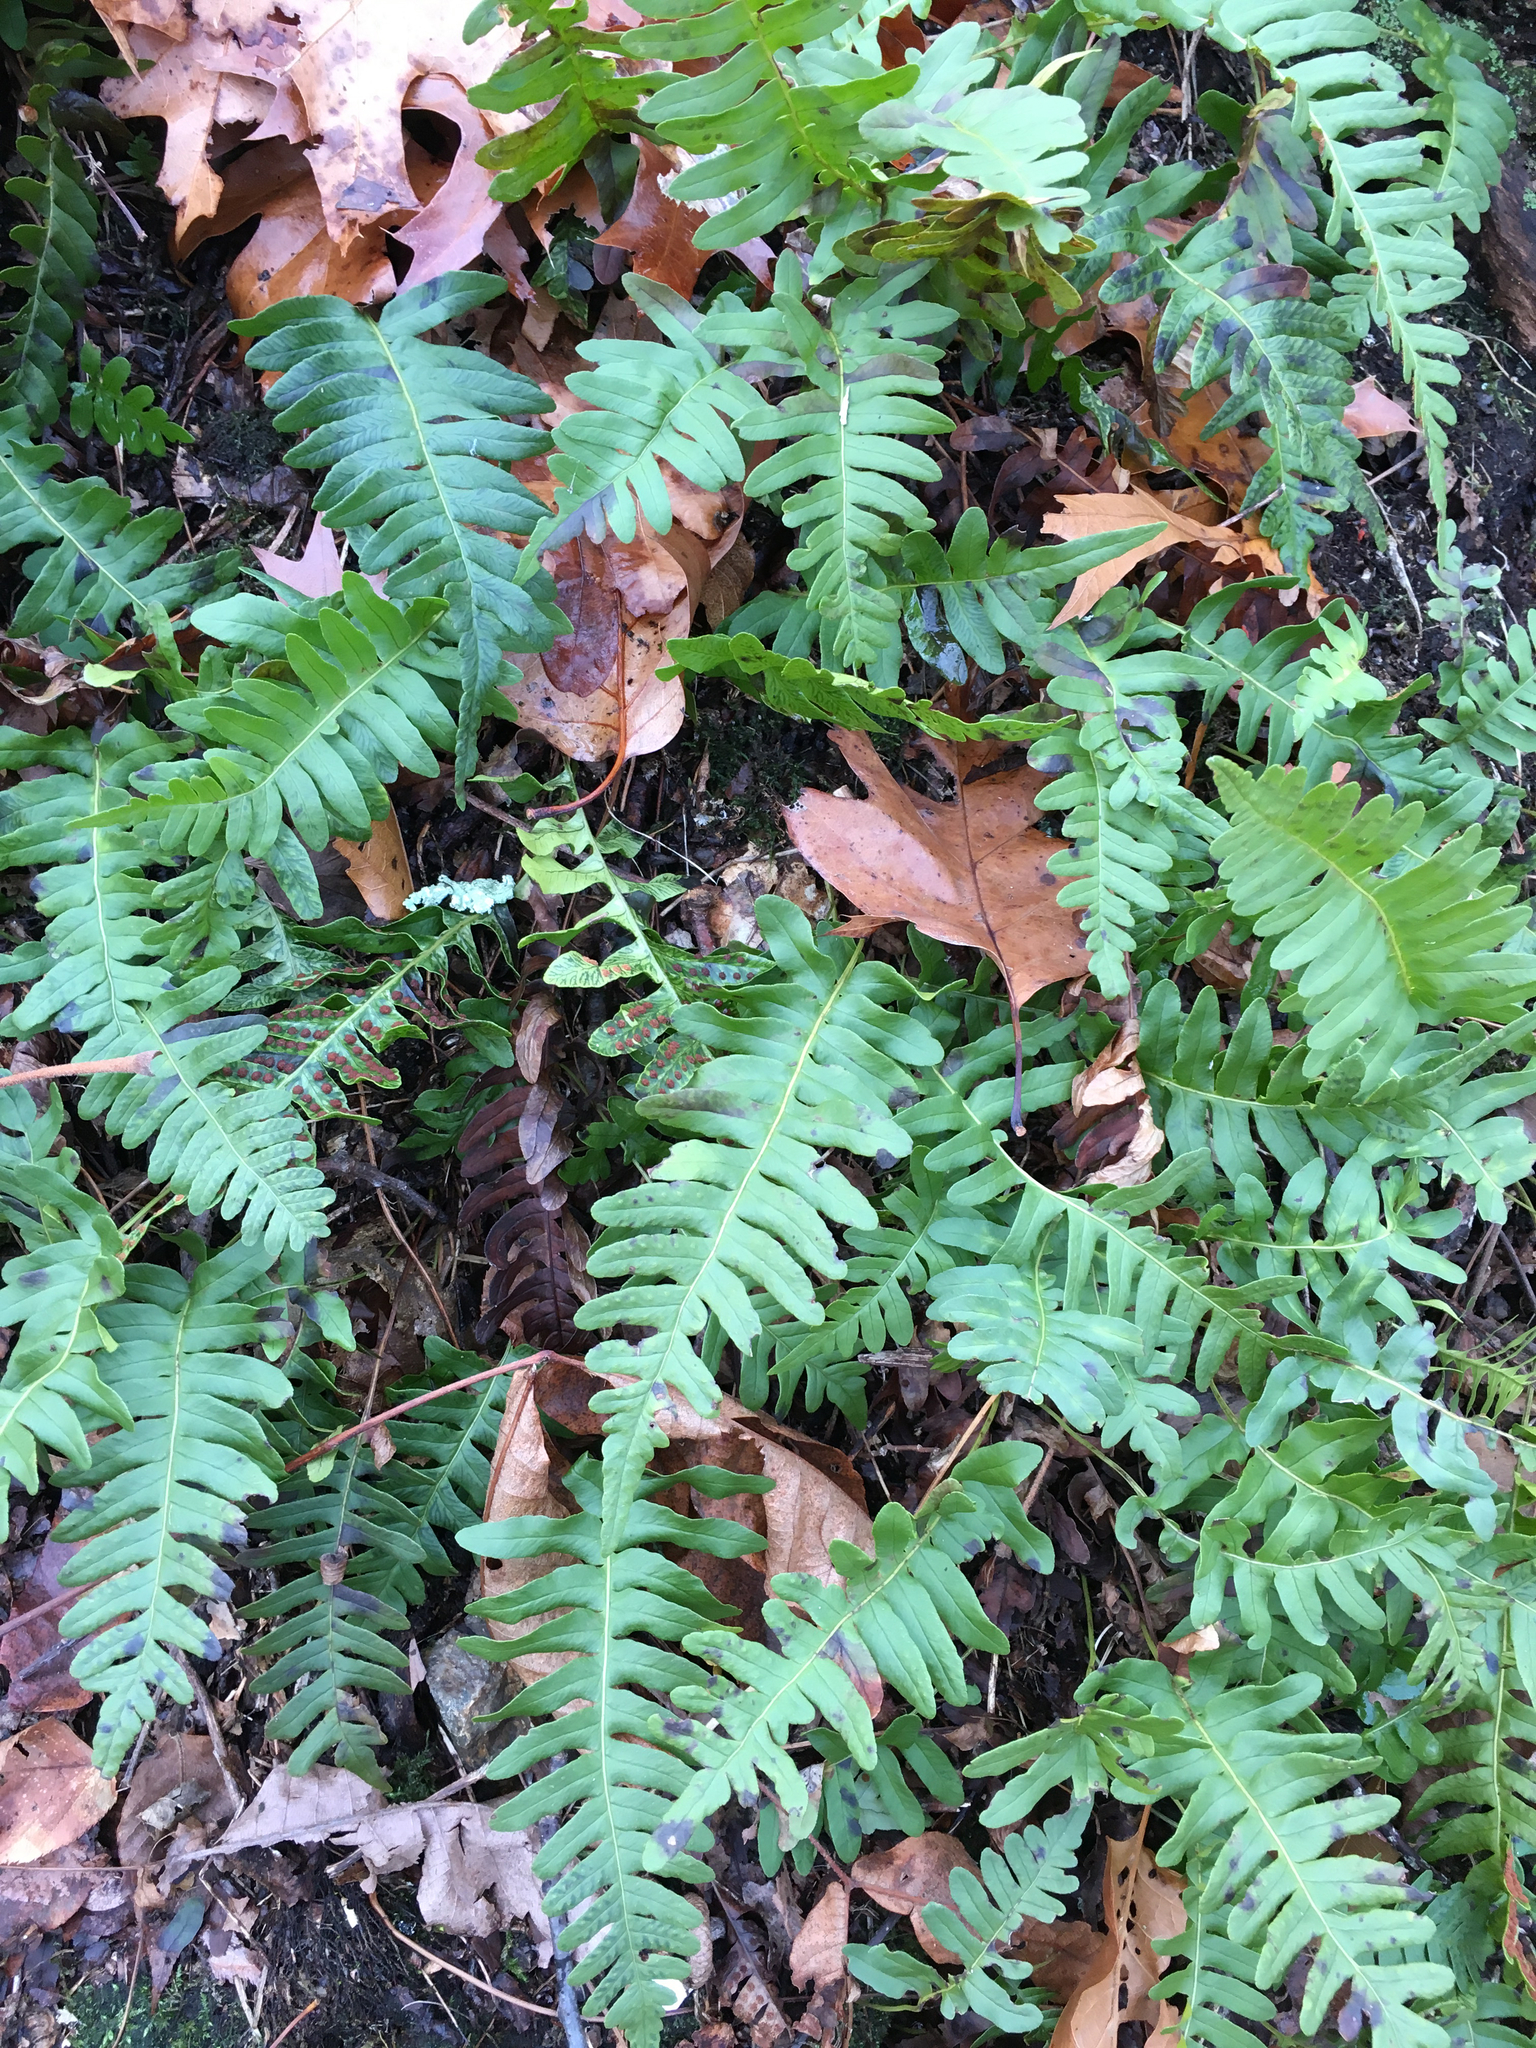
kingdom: Plantae
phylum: Tracheophyta
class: Polypodiopsida
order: Polypodiales
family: Polypodiaceae
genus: Polypodium
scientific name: Polypodium virginianum
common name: American wall fern
